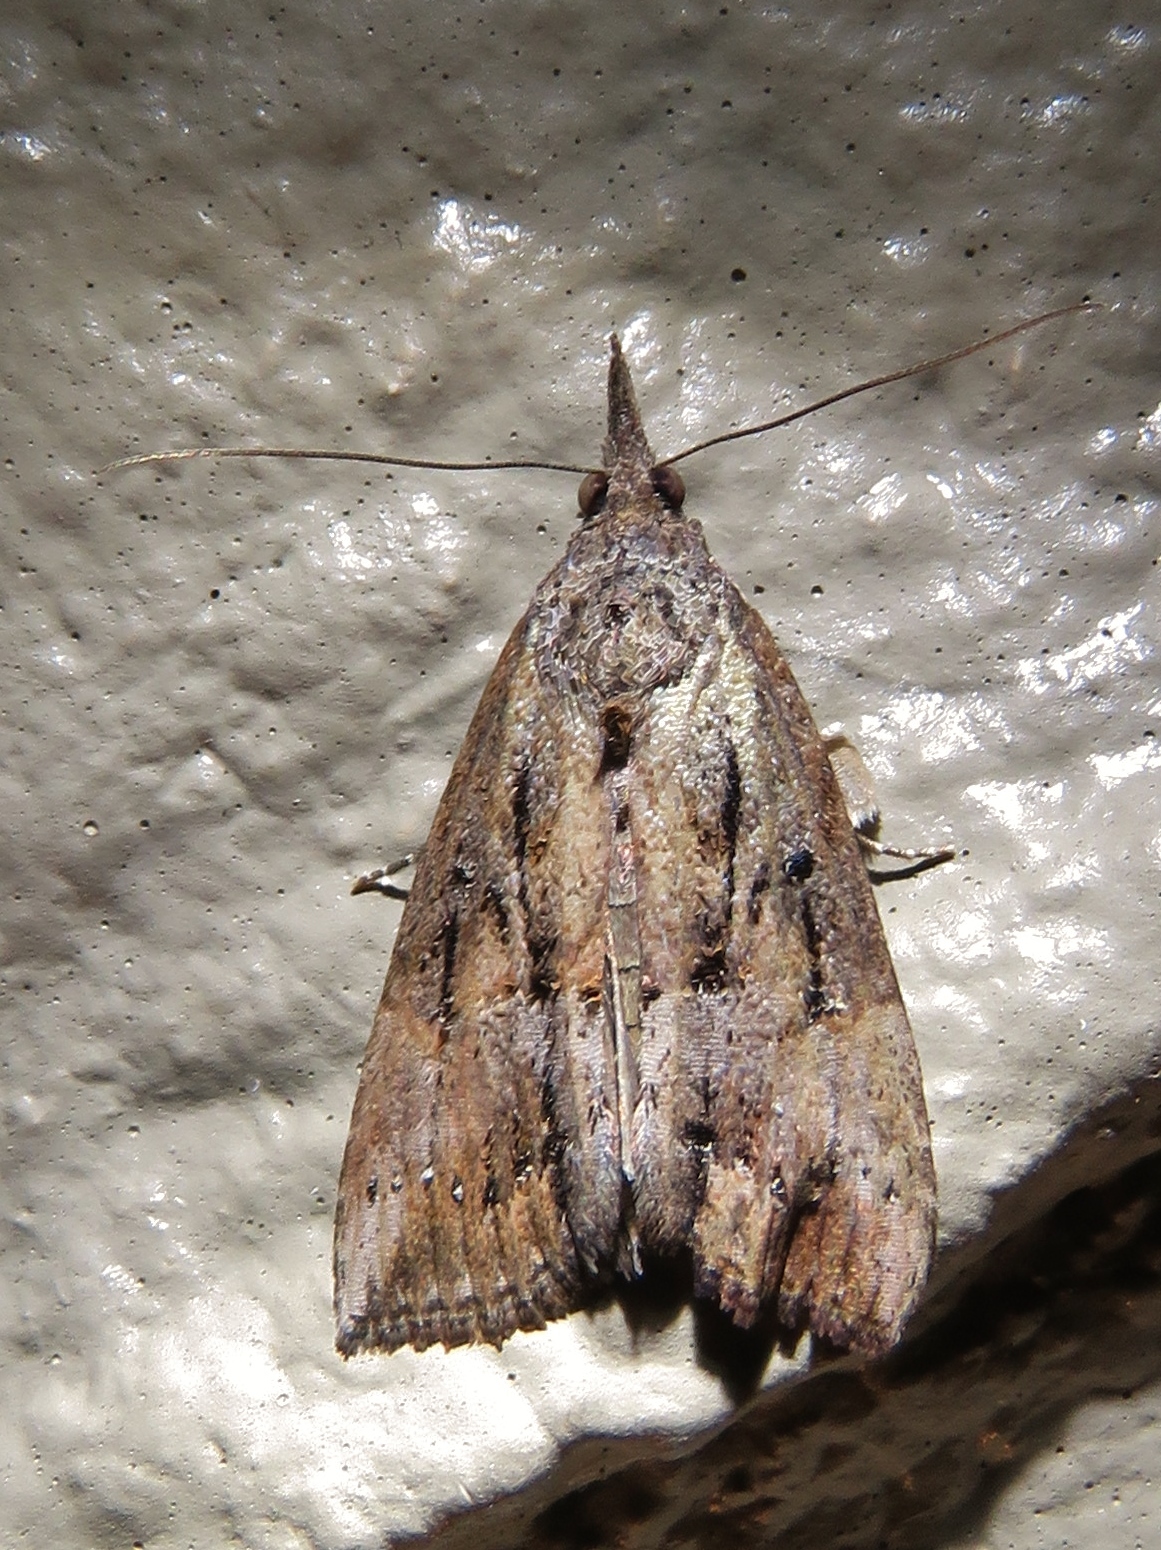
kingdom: Animalia
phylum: Arthropoda
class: Insecta
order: Lepidoptera
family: Erebidae
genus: Hypena
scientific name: Hypena scabra
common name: Green cloverworm
